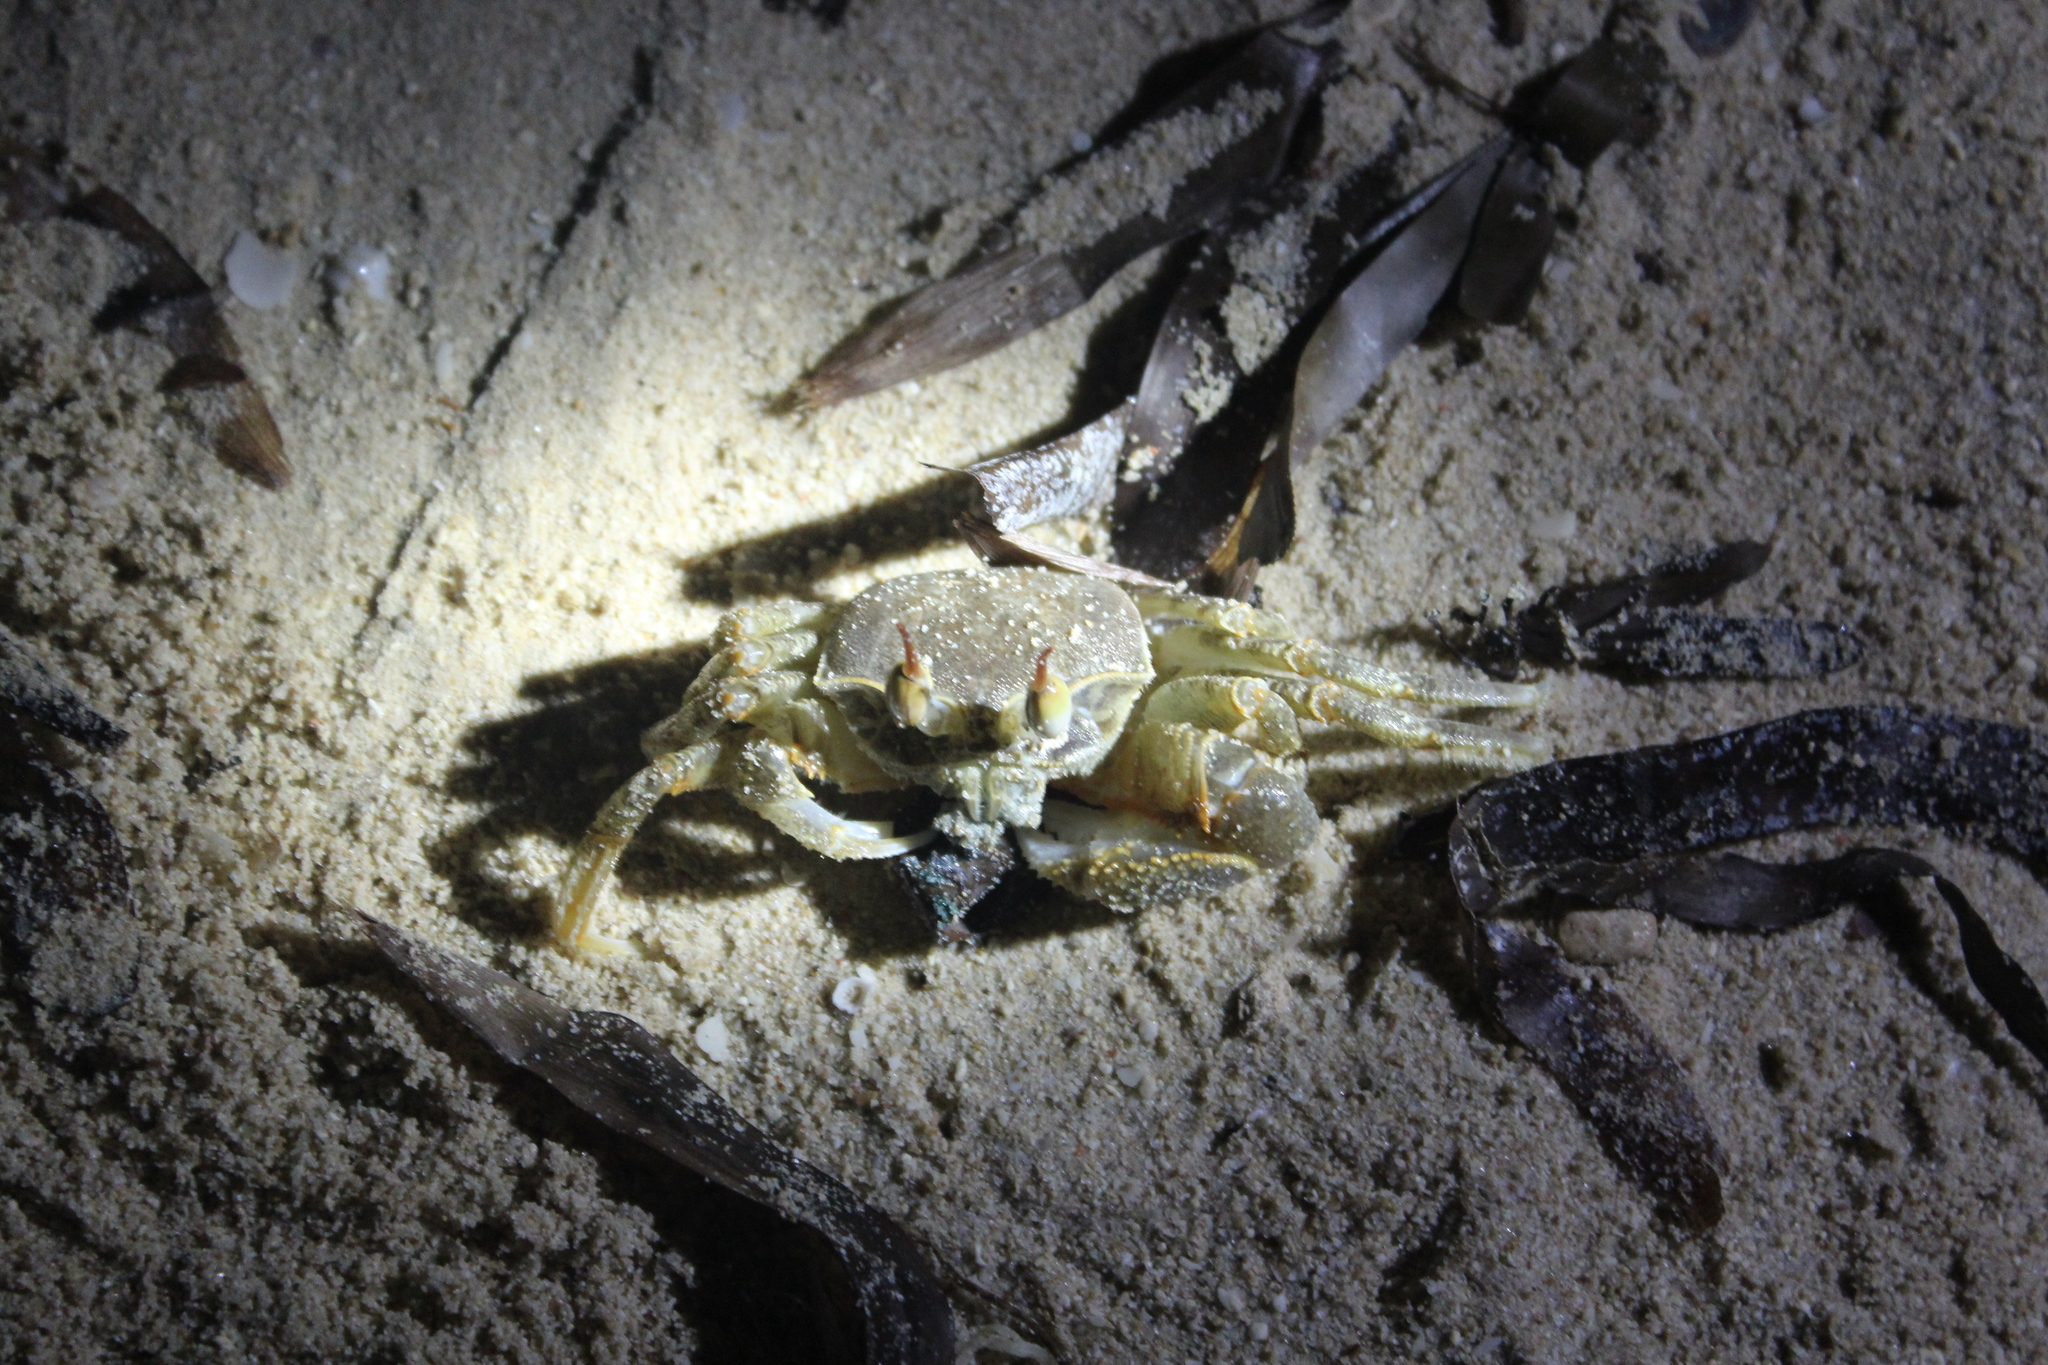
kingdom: Animalia
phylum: Arthropoda
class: Malacostraca
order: Decapoda
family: Ocypodidae
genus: Ocypode
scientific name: Ocypode ceratophthalmus
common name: Indo-pacific ghost crab
